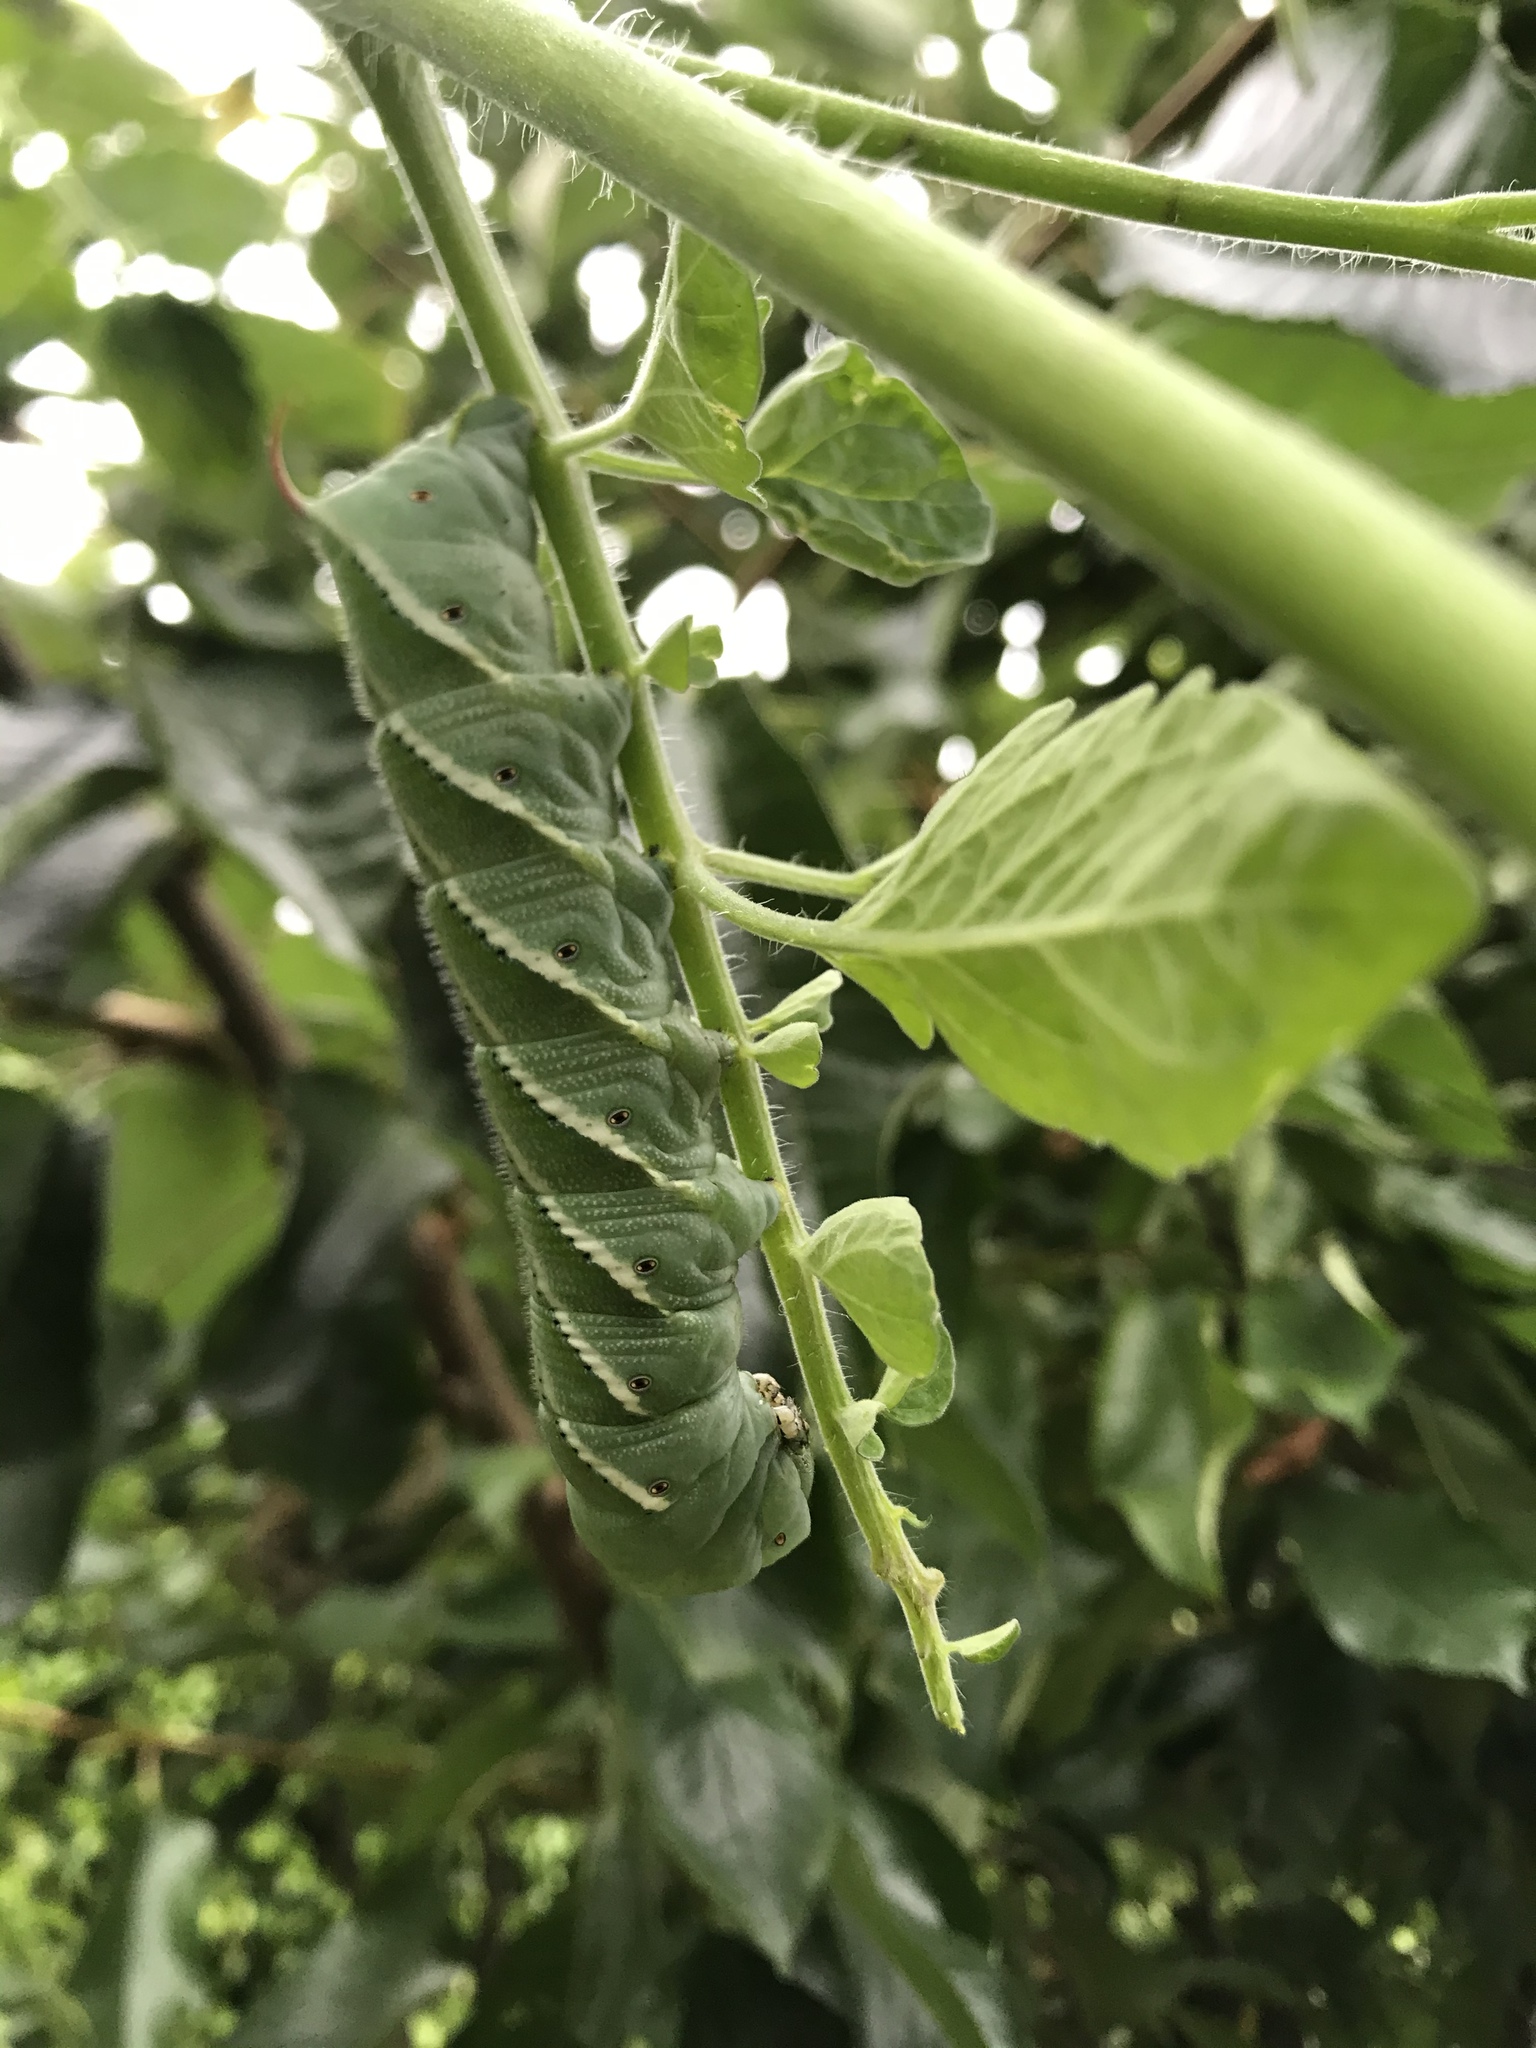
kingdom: Animalia
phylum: Arthropoda
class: Insecta
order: Lepidoptera
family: Sphingidae
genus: Manduca
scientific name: Manduca sexta
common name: Carolina sphinx
